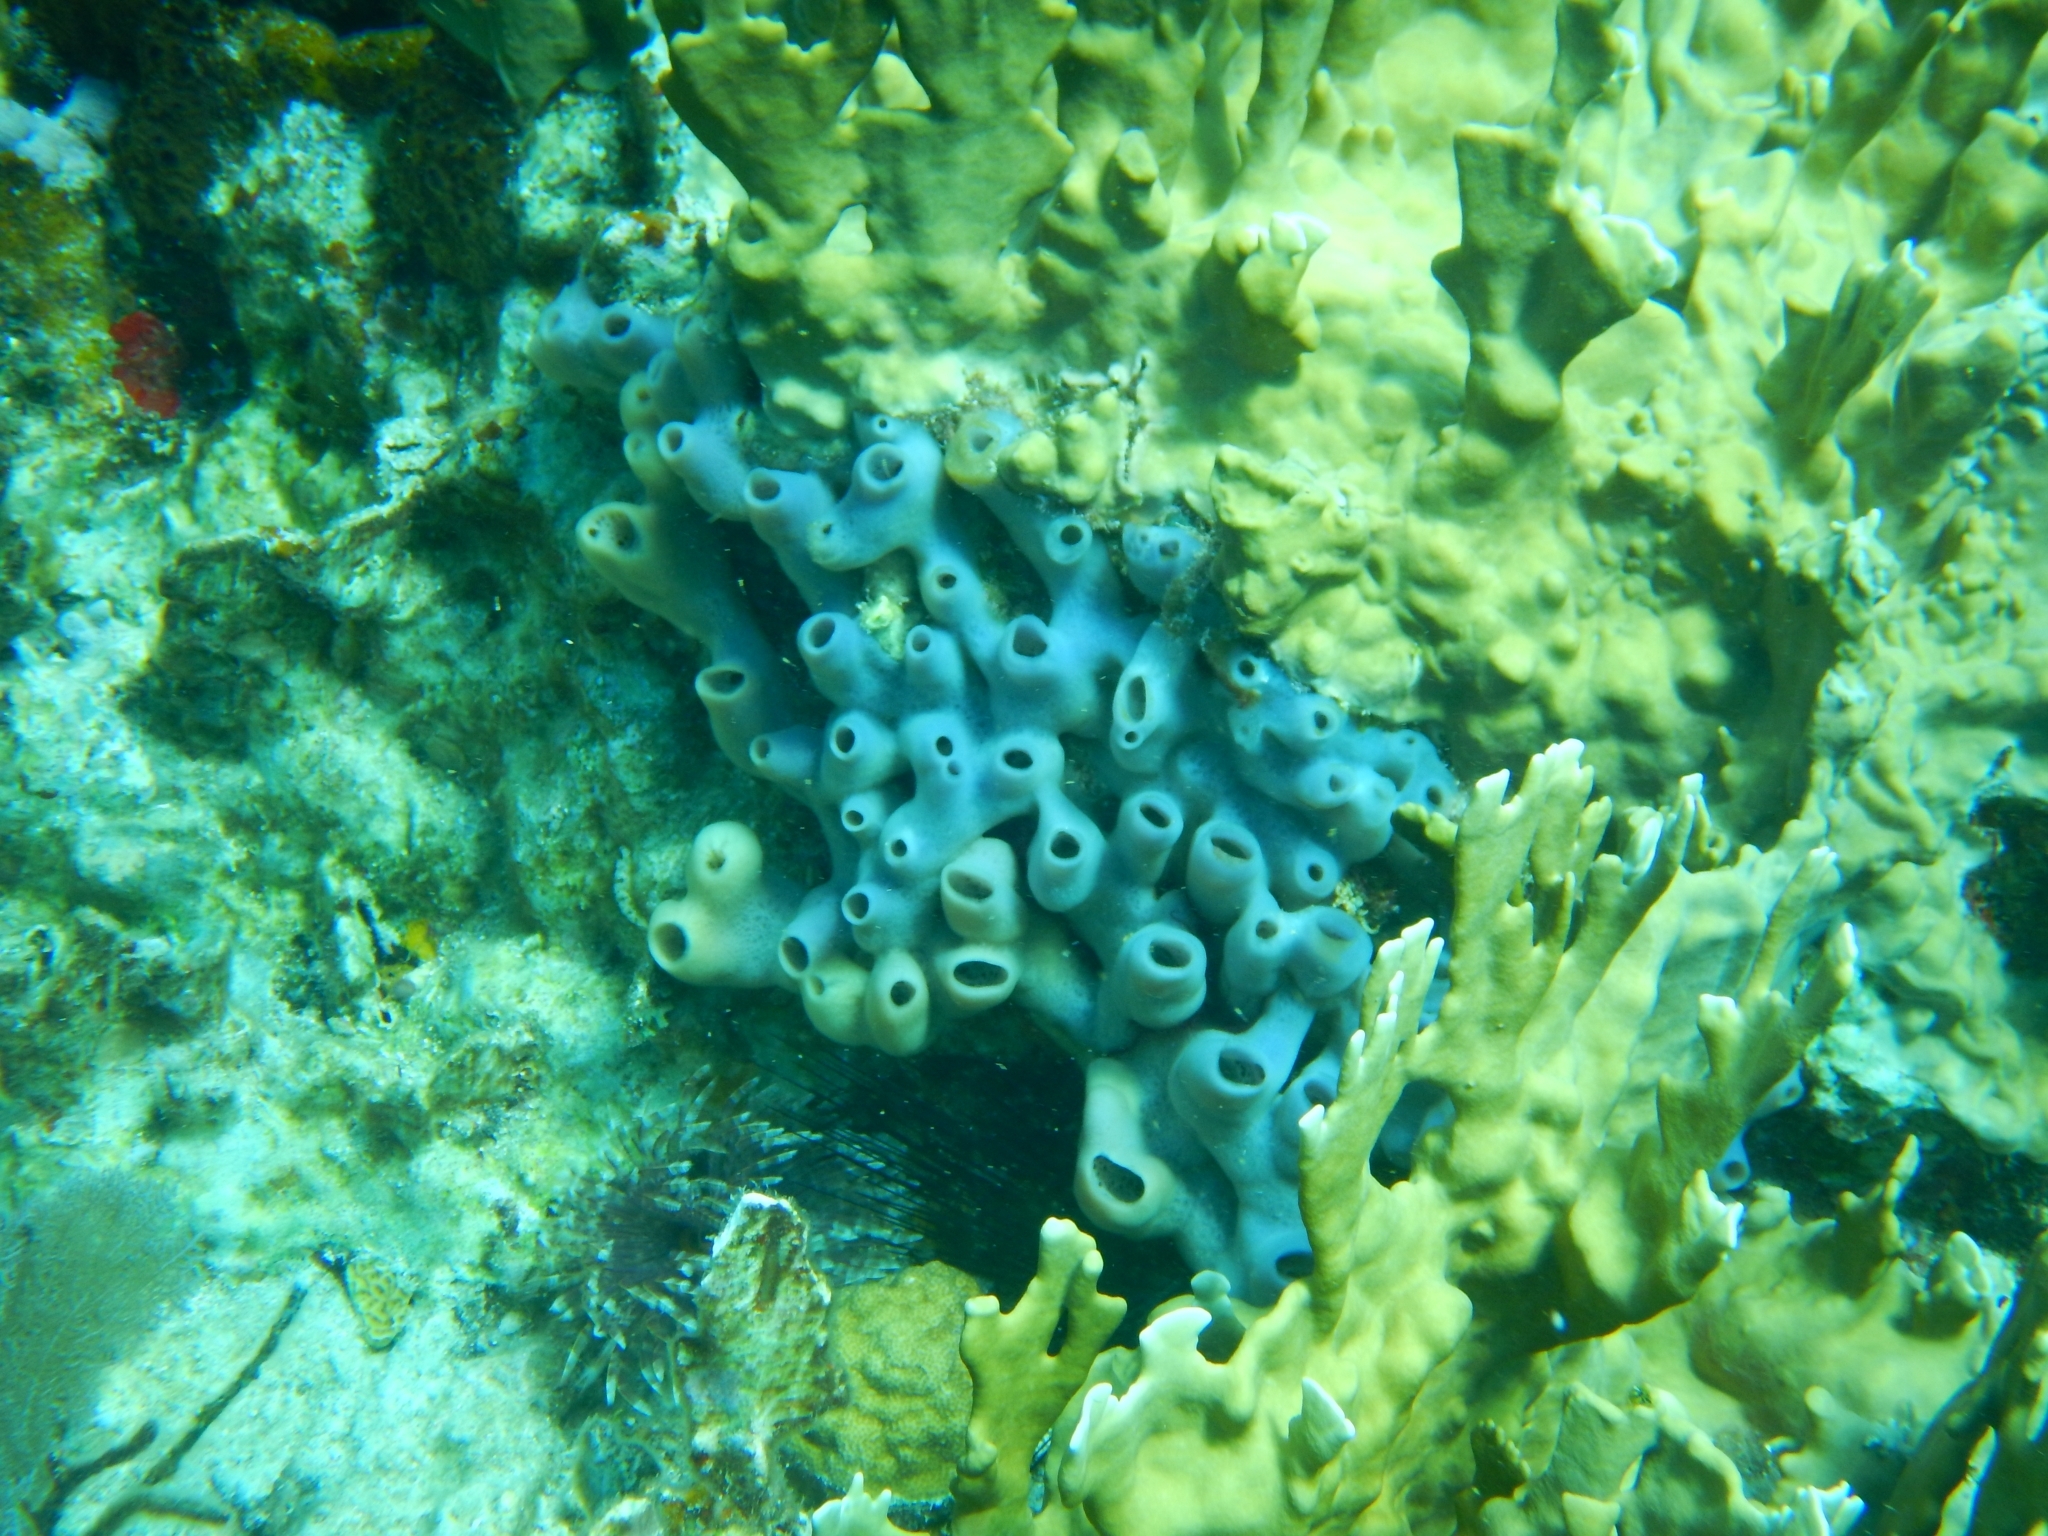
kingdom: Animalia
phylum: Porifera
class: Demospongiae
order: Haplosclerida
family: Callyspongiidae
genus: Callyspongia
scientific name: Callyspongia fallax
